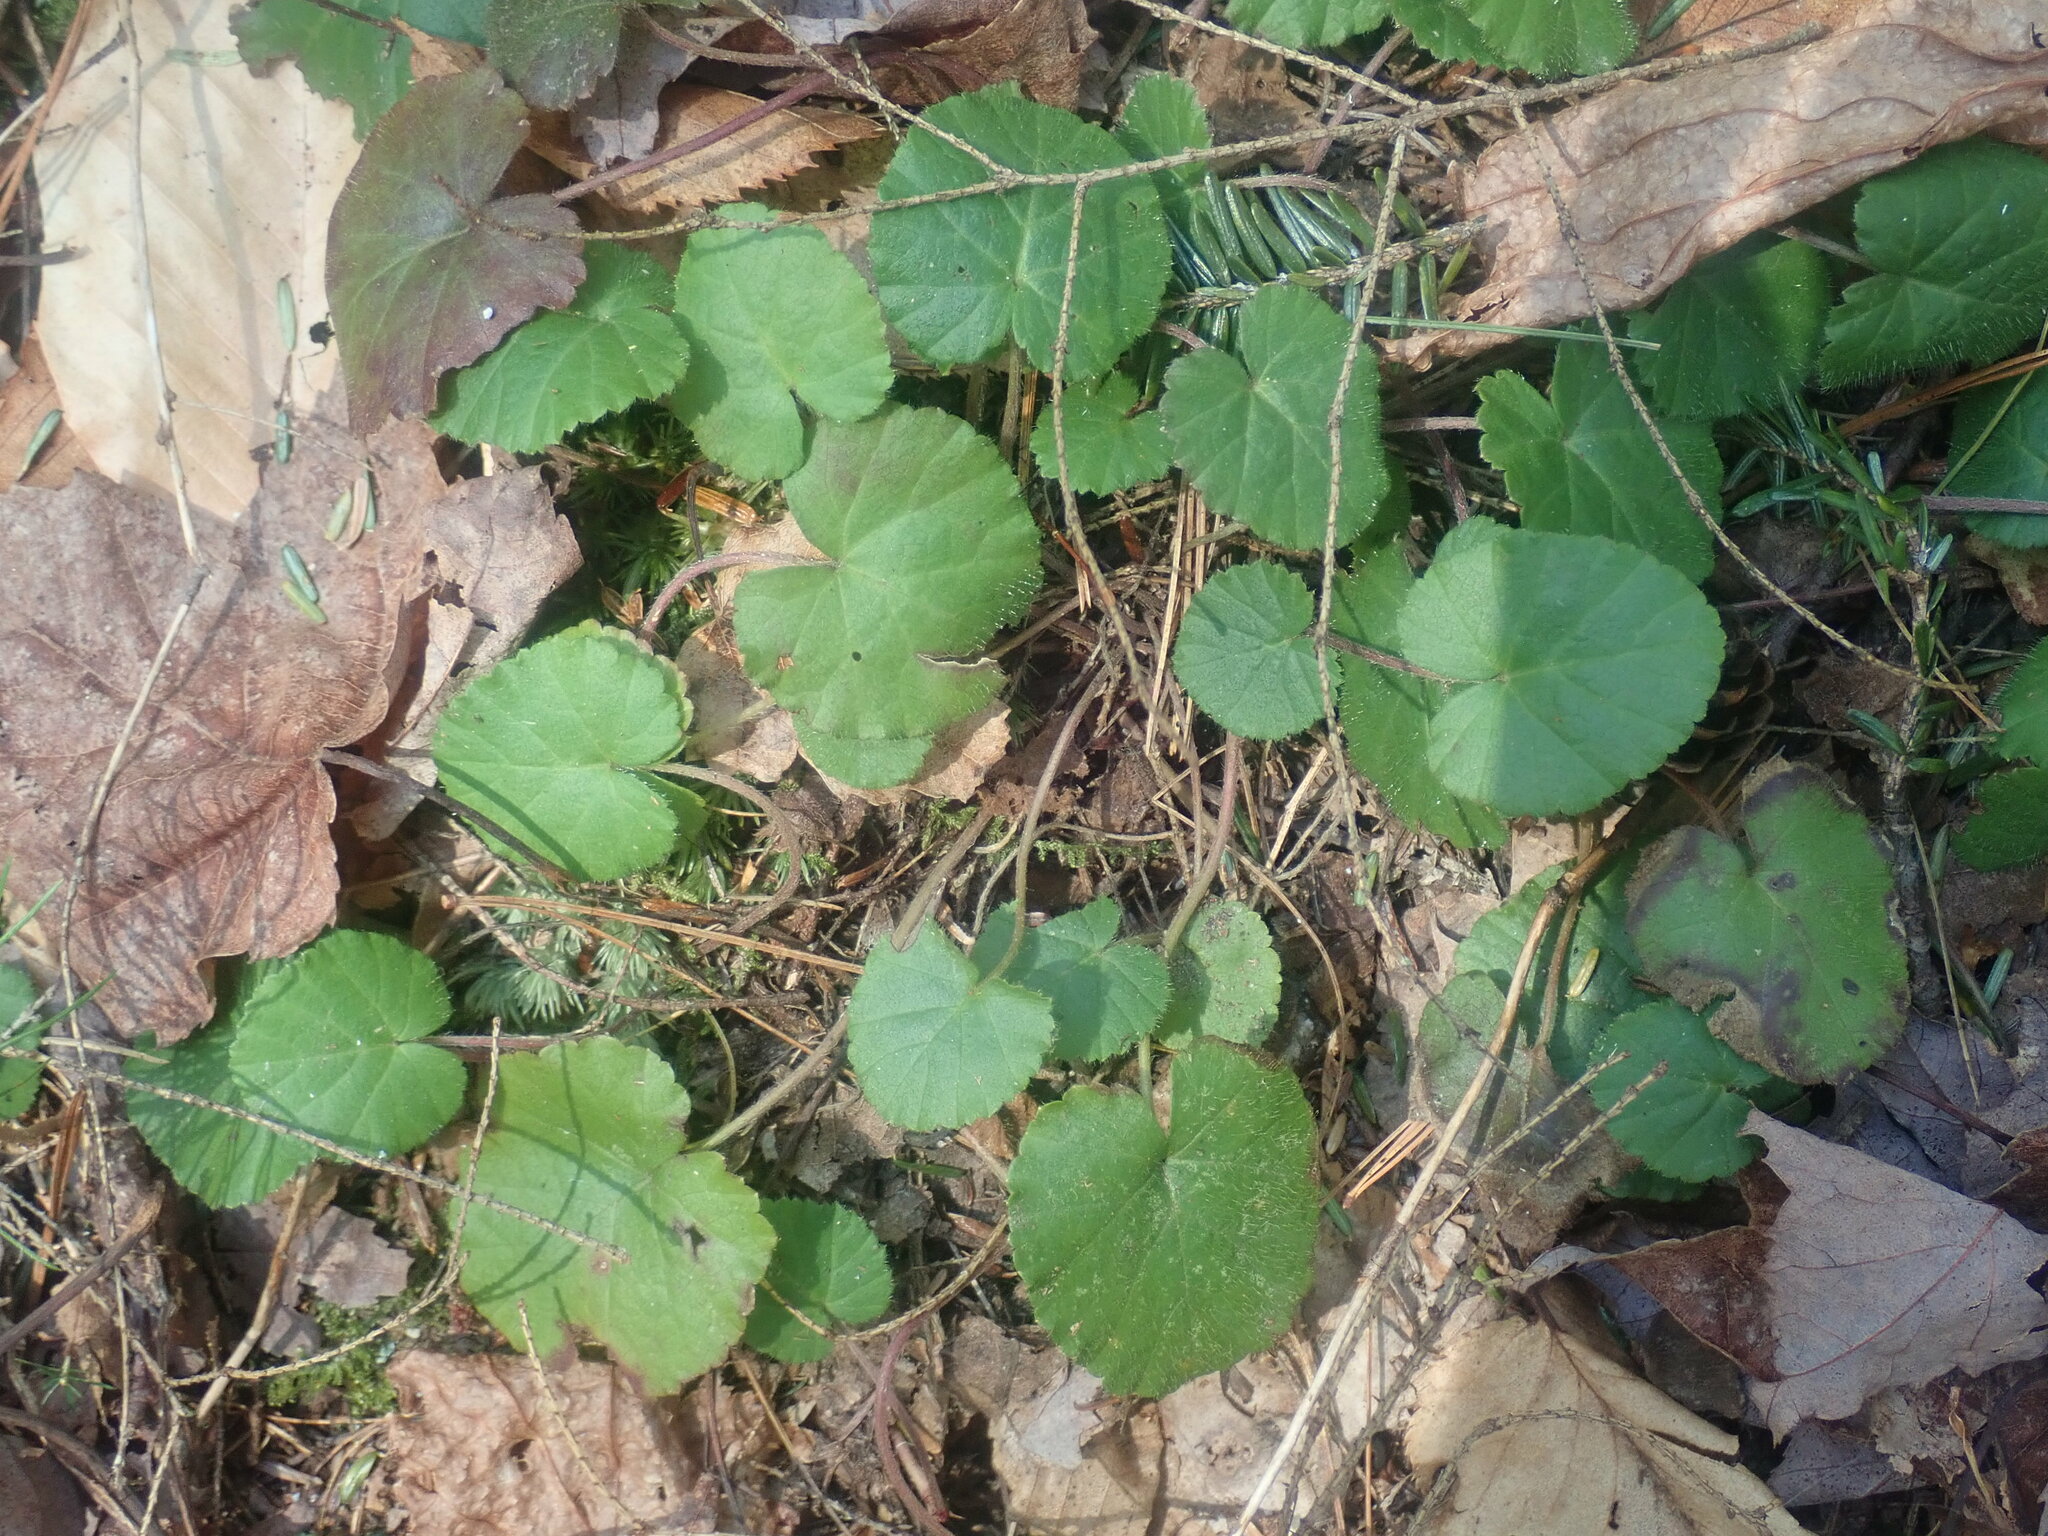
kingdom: Plantae
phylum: Tracheophyta
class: Magnoliopsida
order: Rosales
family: Rosaceae
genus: Dalibarda
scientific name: Dalibarda repens
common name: Dewdrop
